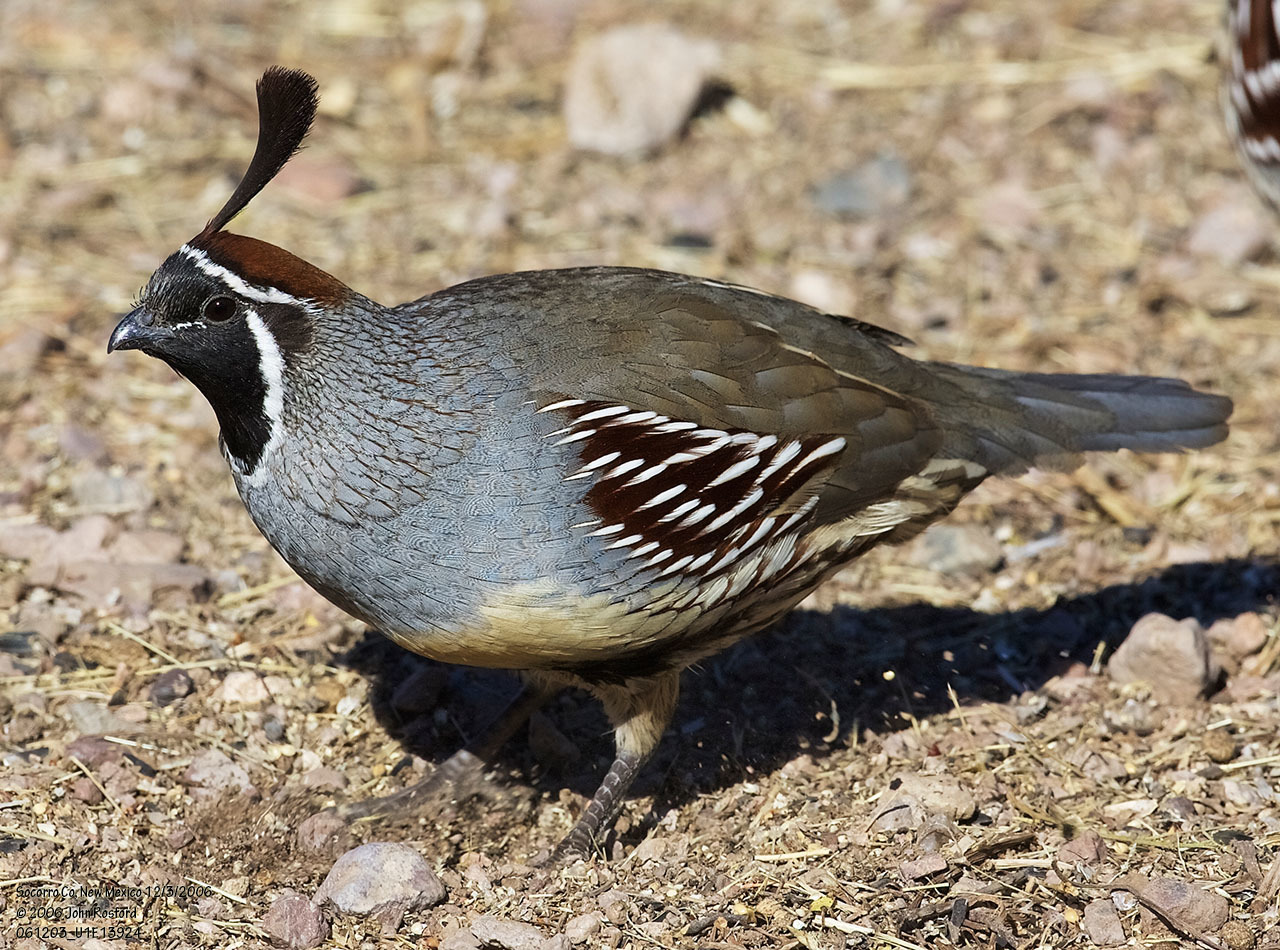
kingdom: Animalia
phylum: Chordata
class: Aves
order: Galliformes
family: Odontophoridae
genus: Callipepla
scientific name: Callipepla gambelii
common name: Gambel's quail
